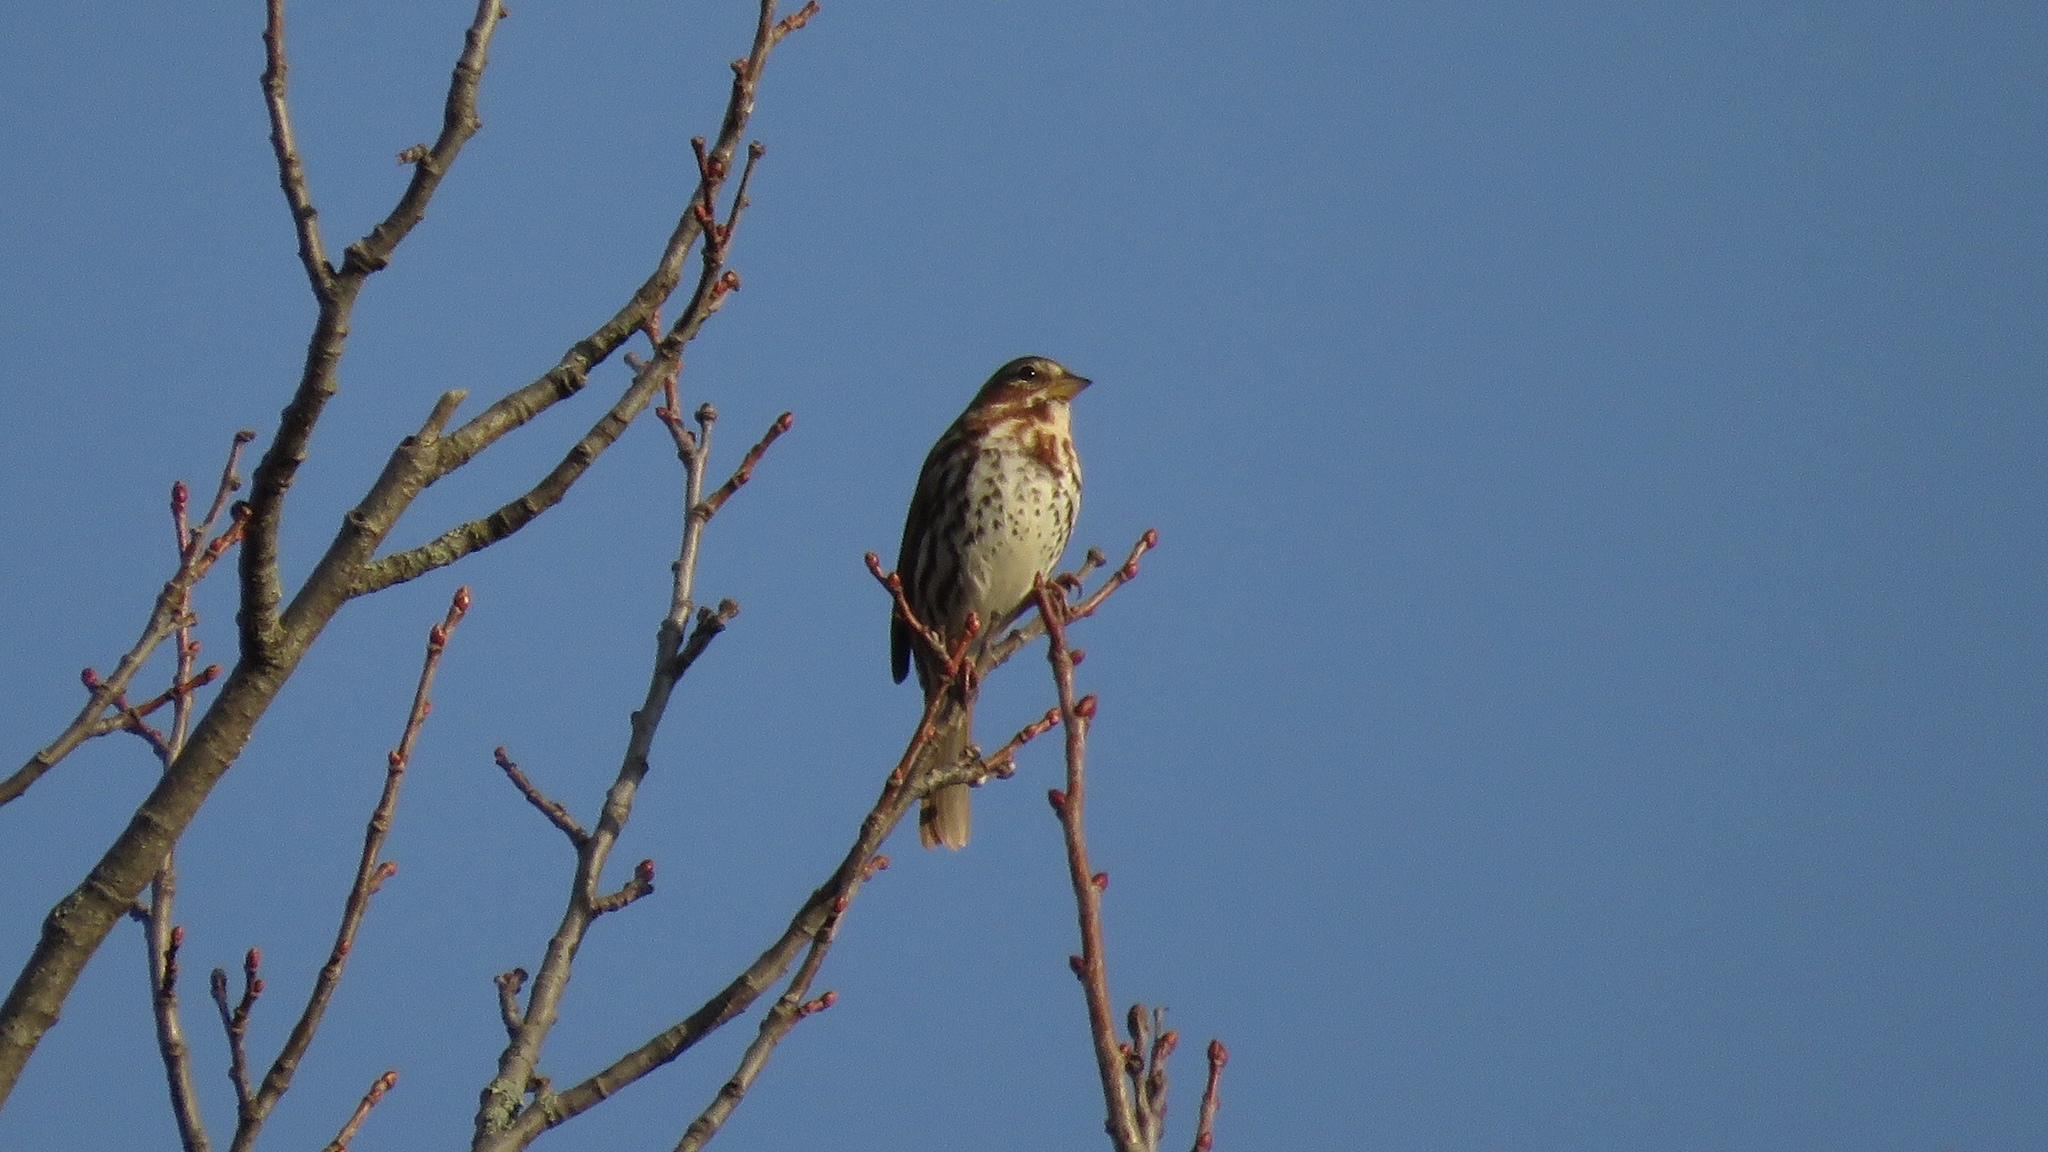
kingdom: Animalia
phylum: Chordata
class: Aves
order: Passeriformes
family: Passerellidae
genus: Passerella
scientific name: Passerella iliaca
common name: Fox sparrow
